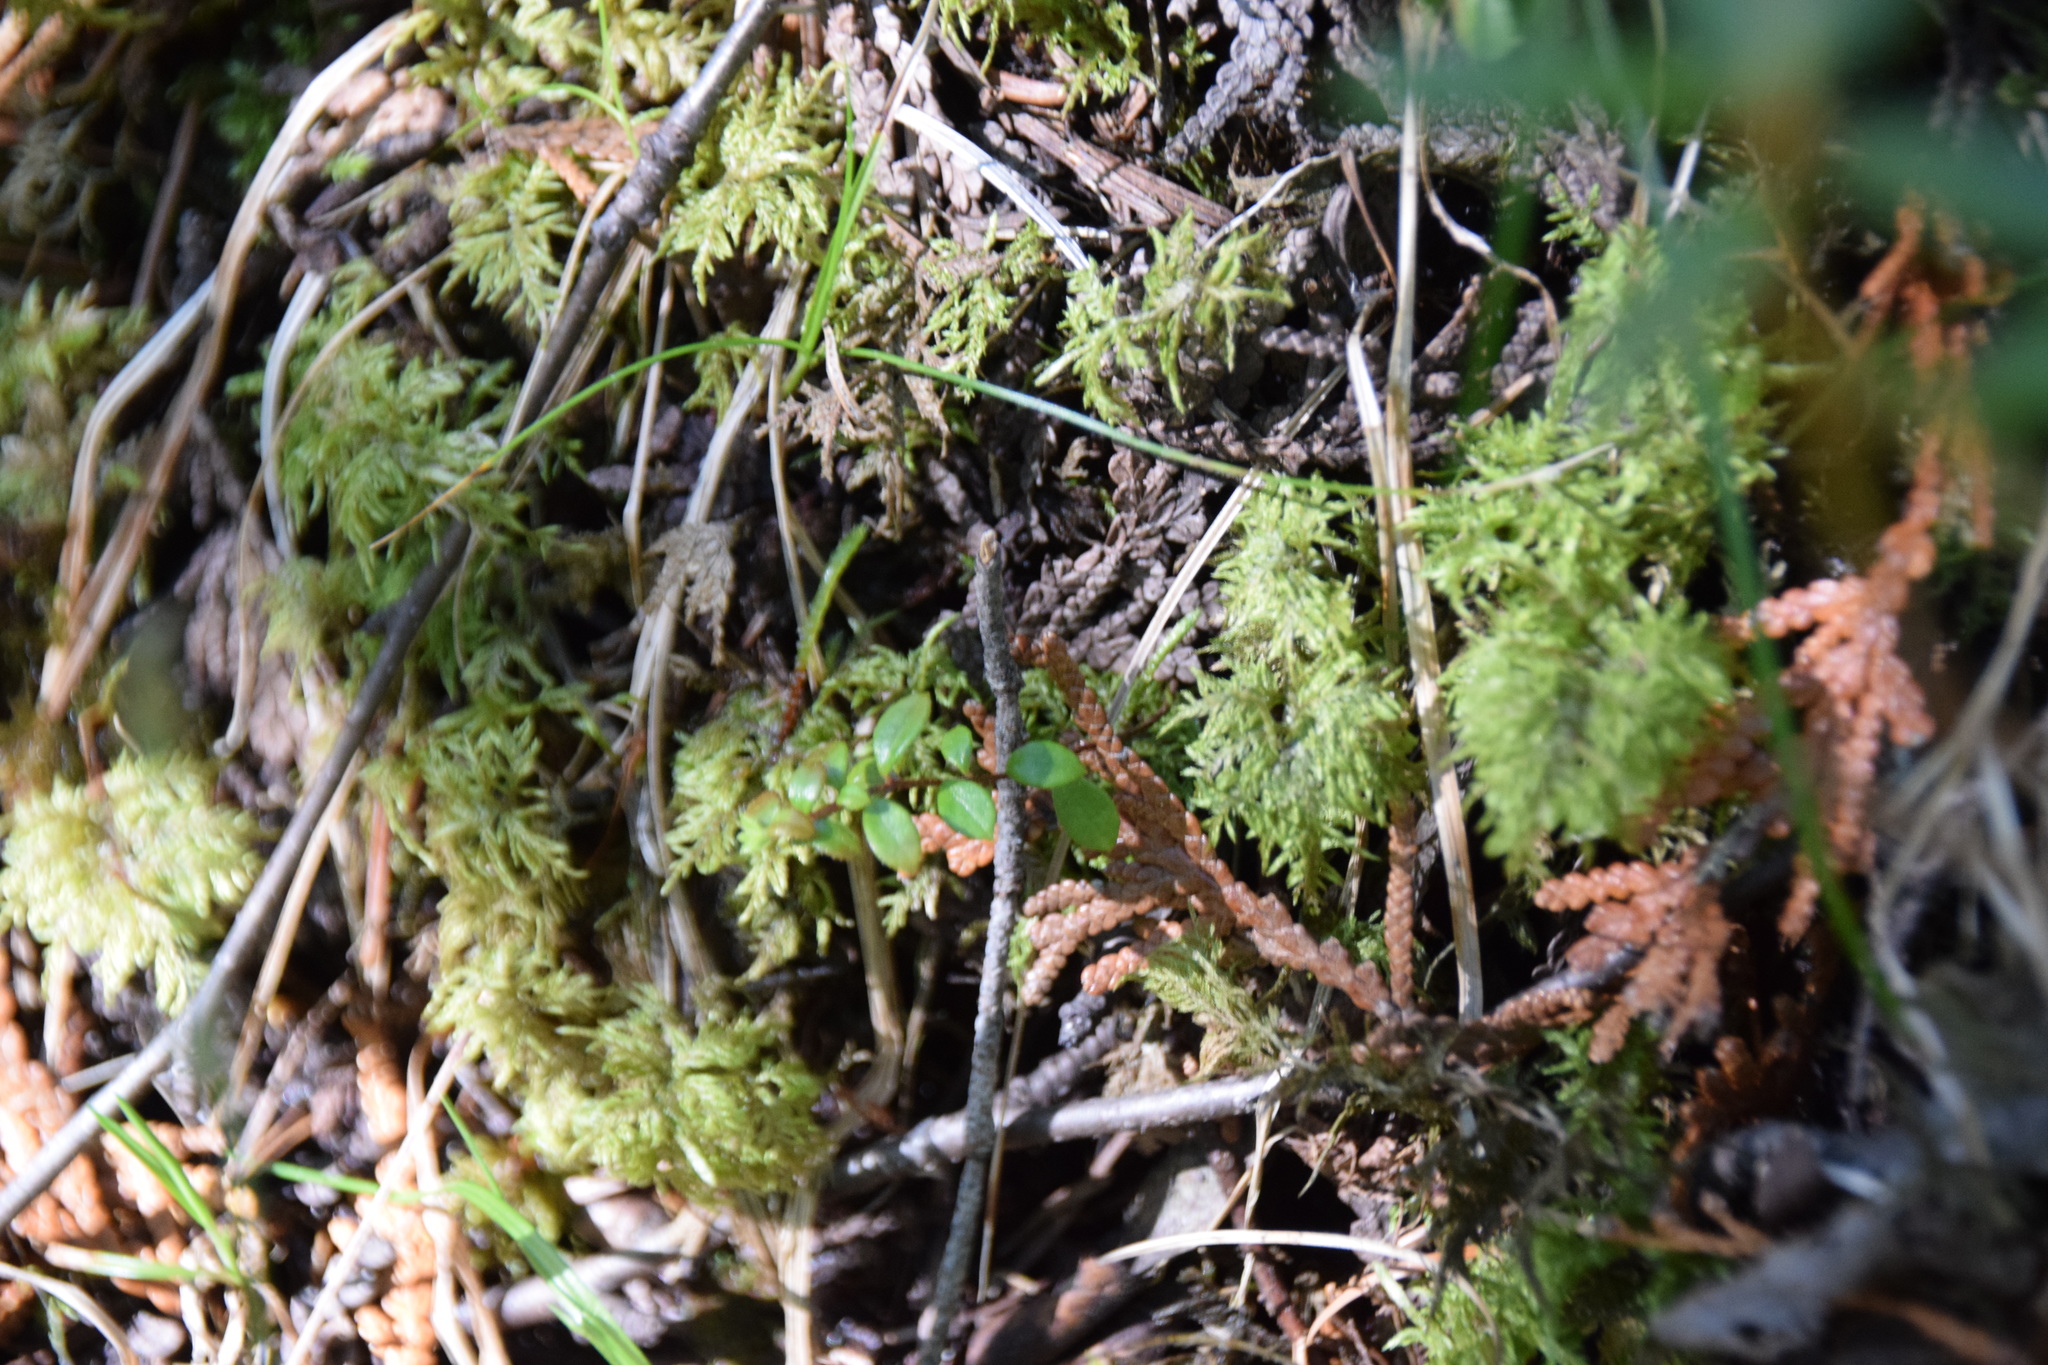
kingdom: Plantae
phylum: Bryophyta
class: Bryopsida
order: Hypnales
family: Hylocomiaceae
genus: Hylocomium
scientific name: Hylocomium splendens
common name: Stairstep moss
